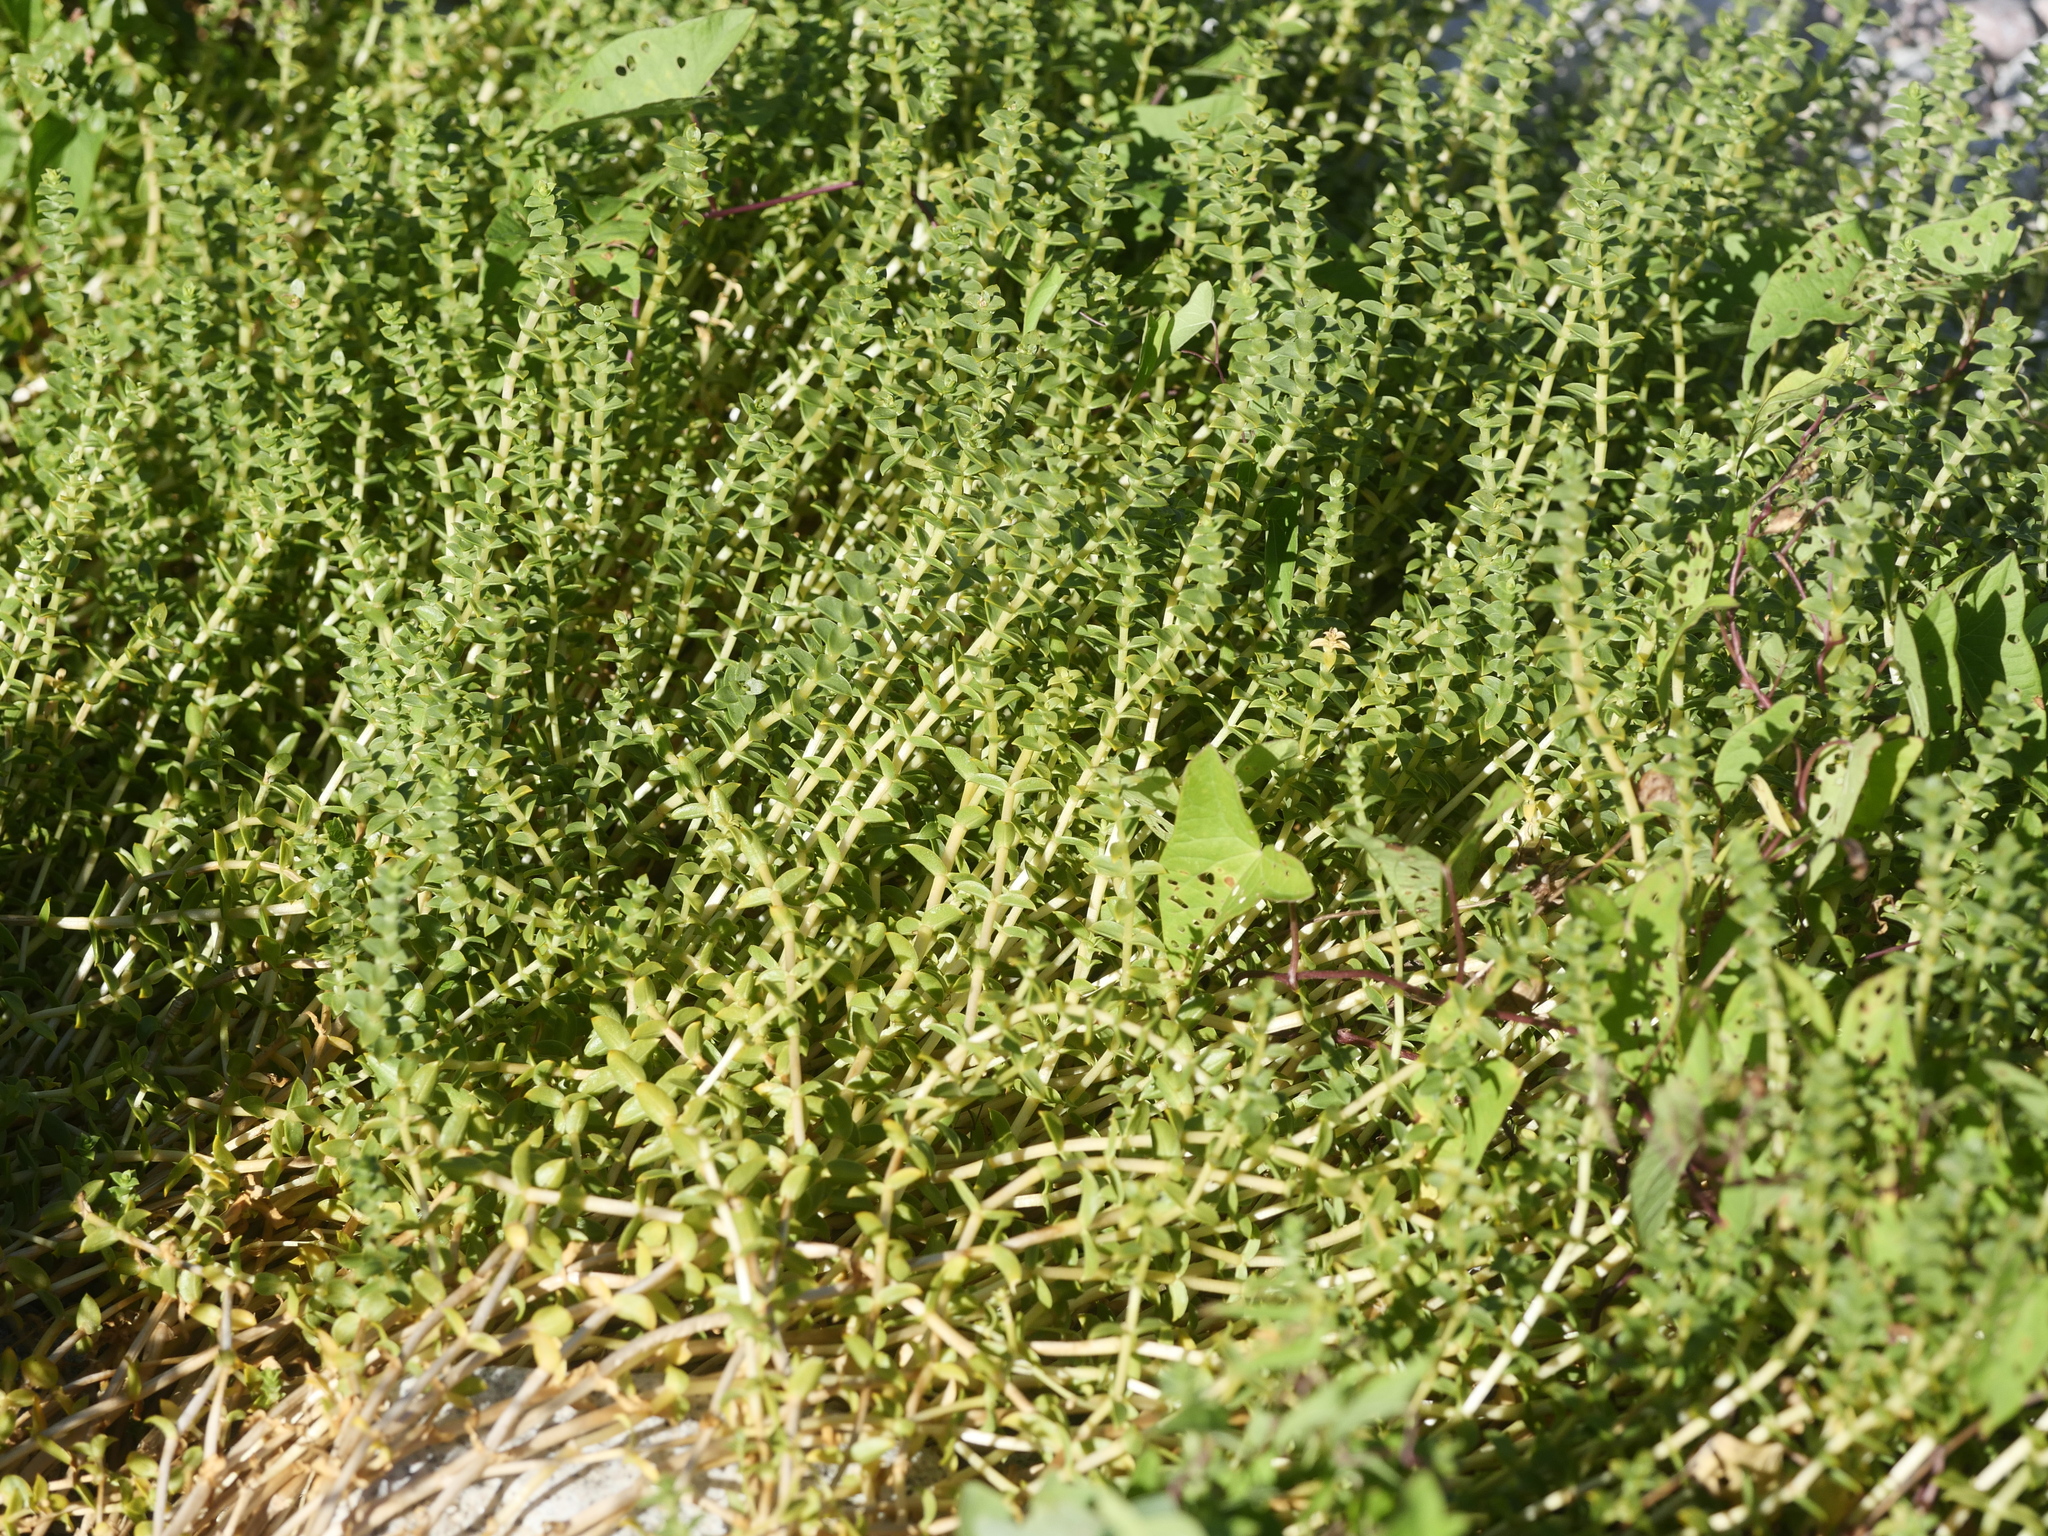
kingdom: Plantae
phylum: Tracheophyta
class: Magnoliopsida
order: Caryophyllales
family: Caryophyllaceae
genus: Honckenya
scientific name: Honckenya peploides
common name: Sea sandwort
